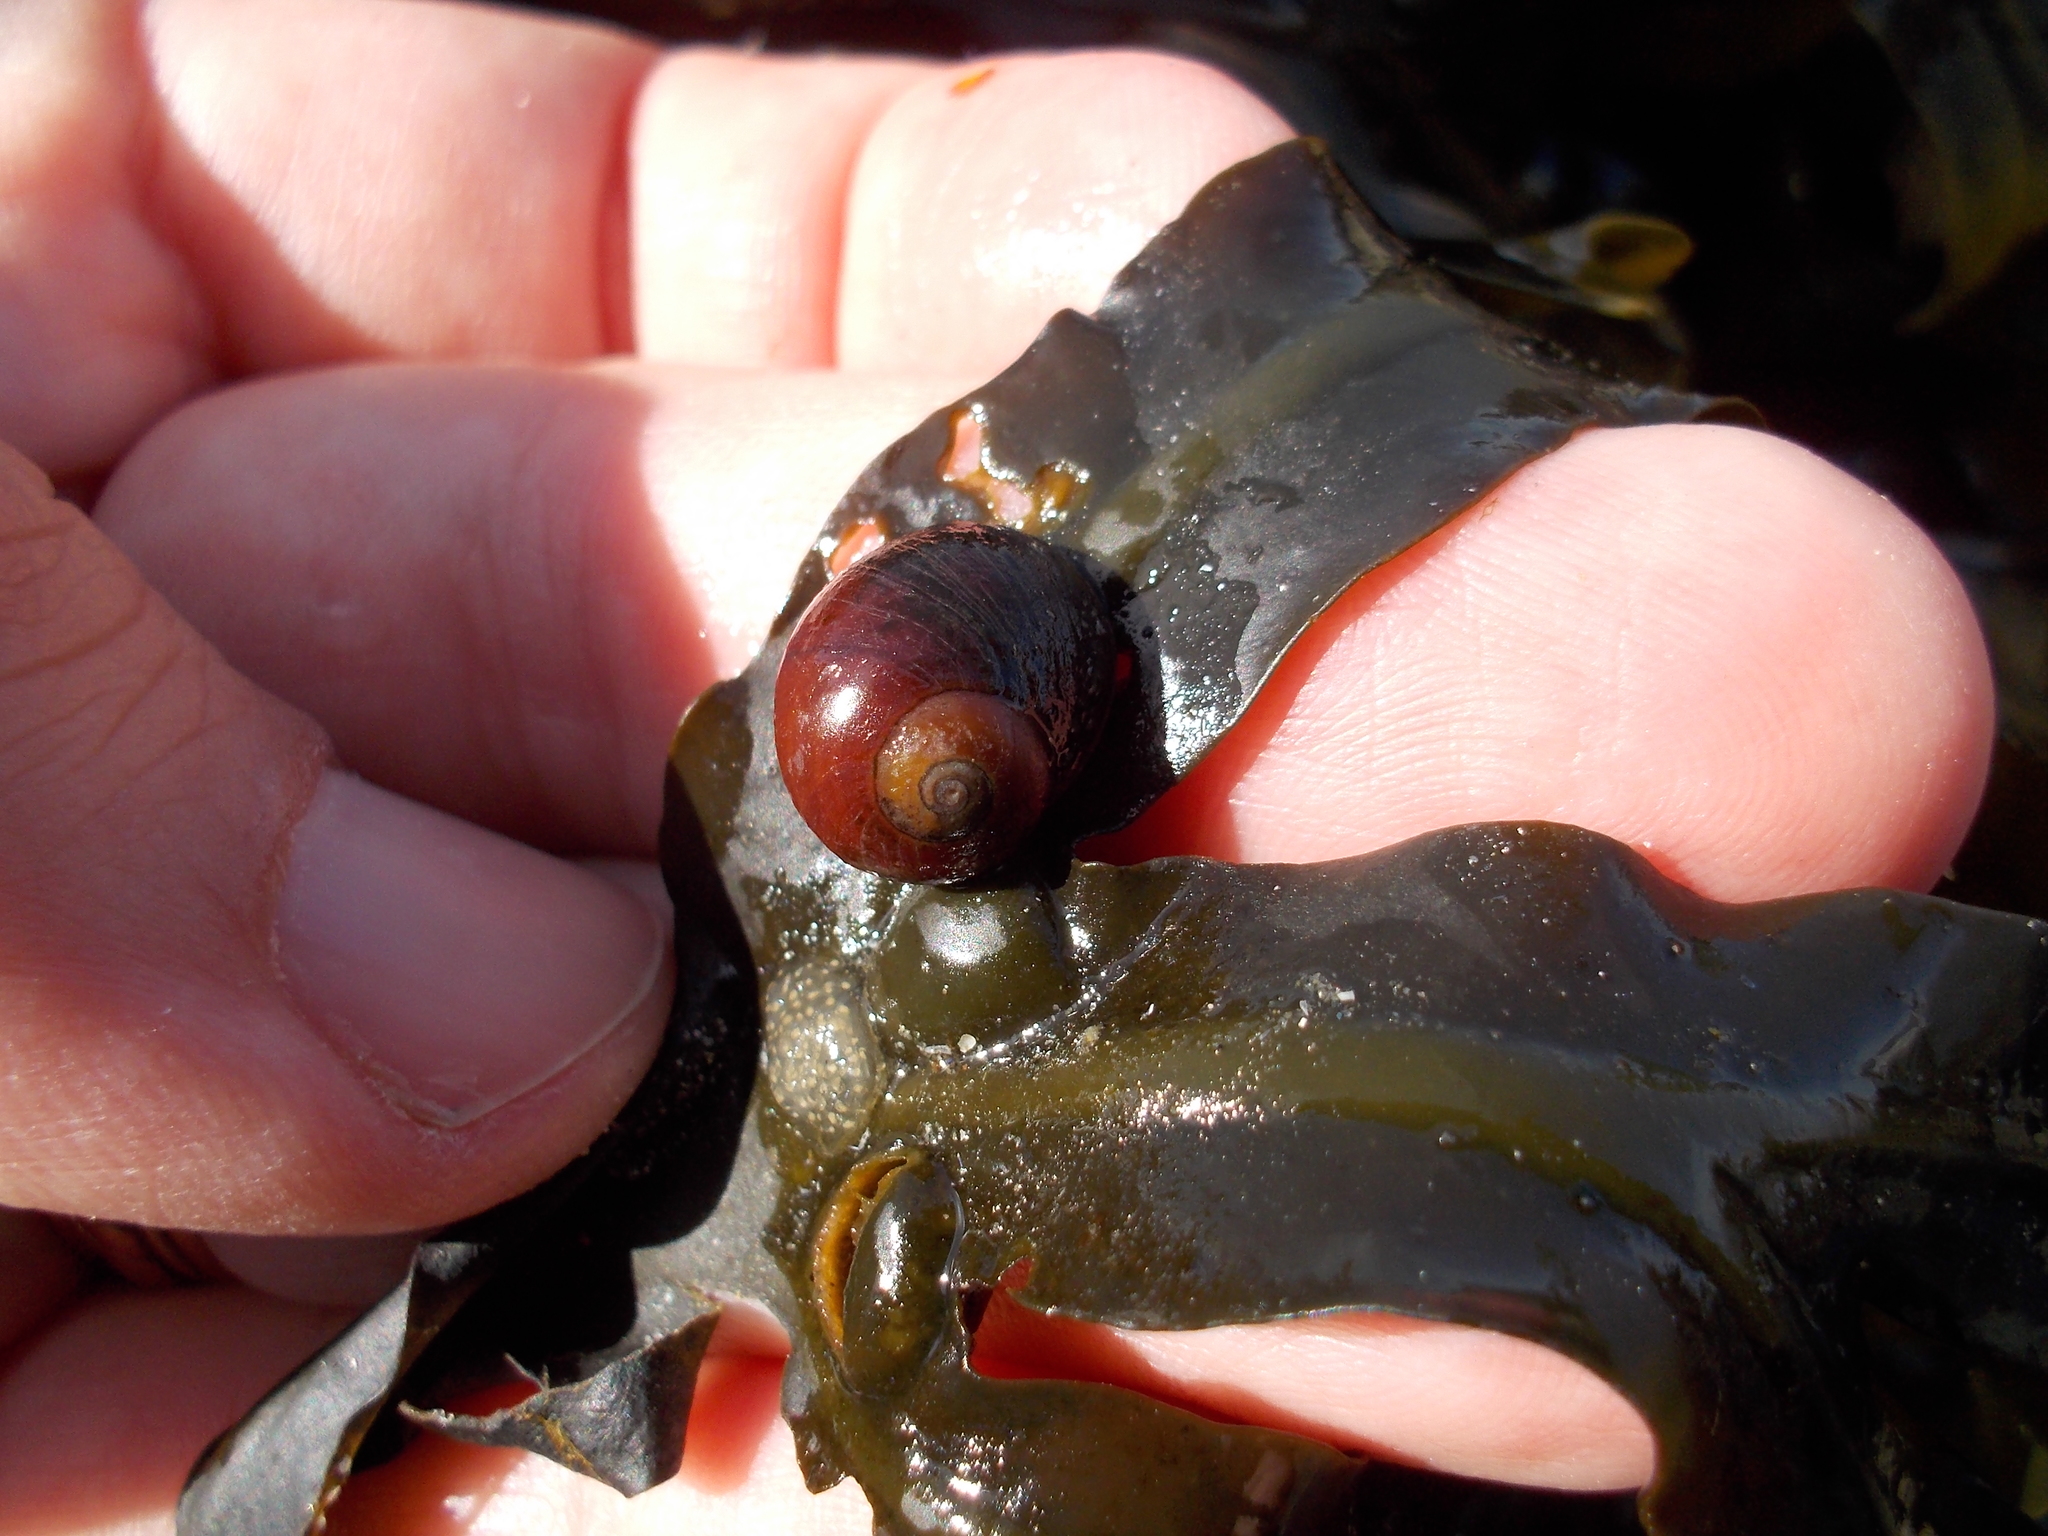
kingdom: Animalia
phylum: Mollusca
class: Gastropoda
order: Littorinimorpha
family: Littorinidae
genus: Littorina
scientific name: Littorina obtusata
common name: Flat periwinkle
